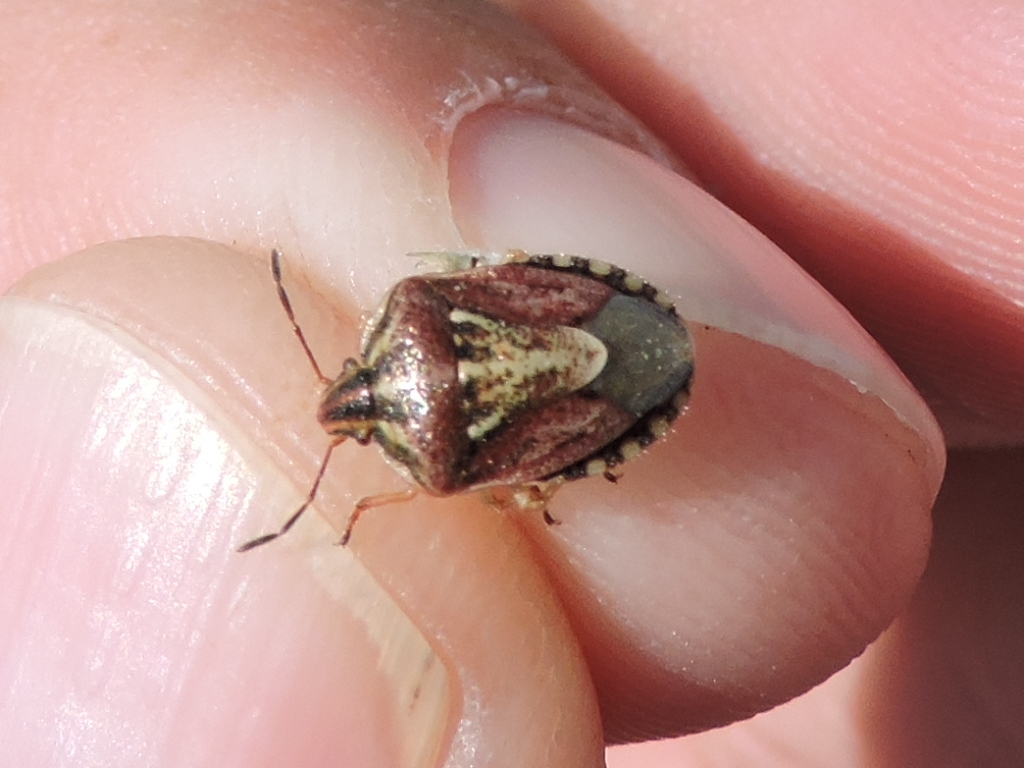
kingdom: Animalia
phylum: Arthropoda
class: Insecta
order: Hemiptera
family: Pentatomidae
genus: Trichopepla
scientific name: Trichopepla semivittata
